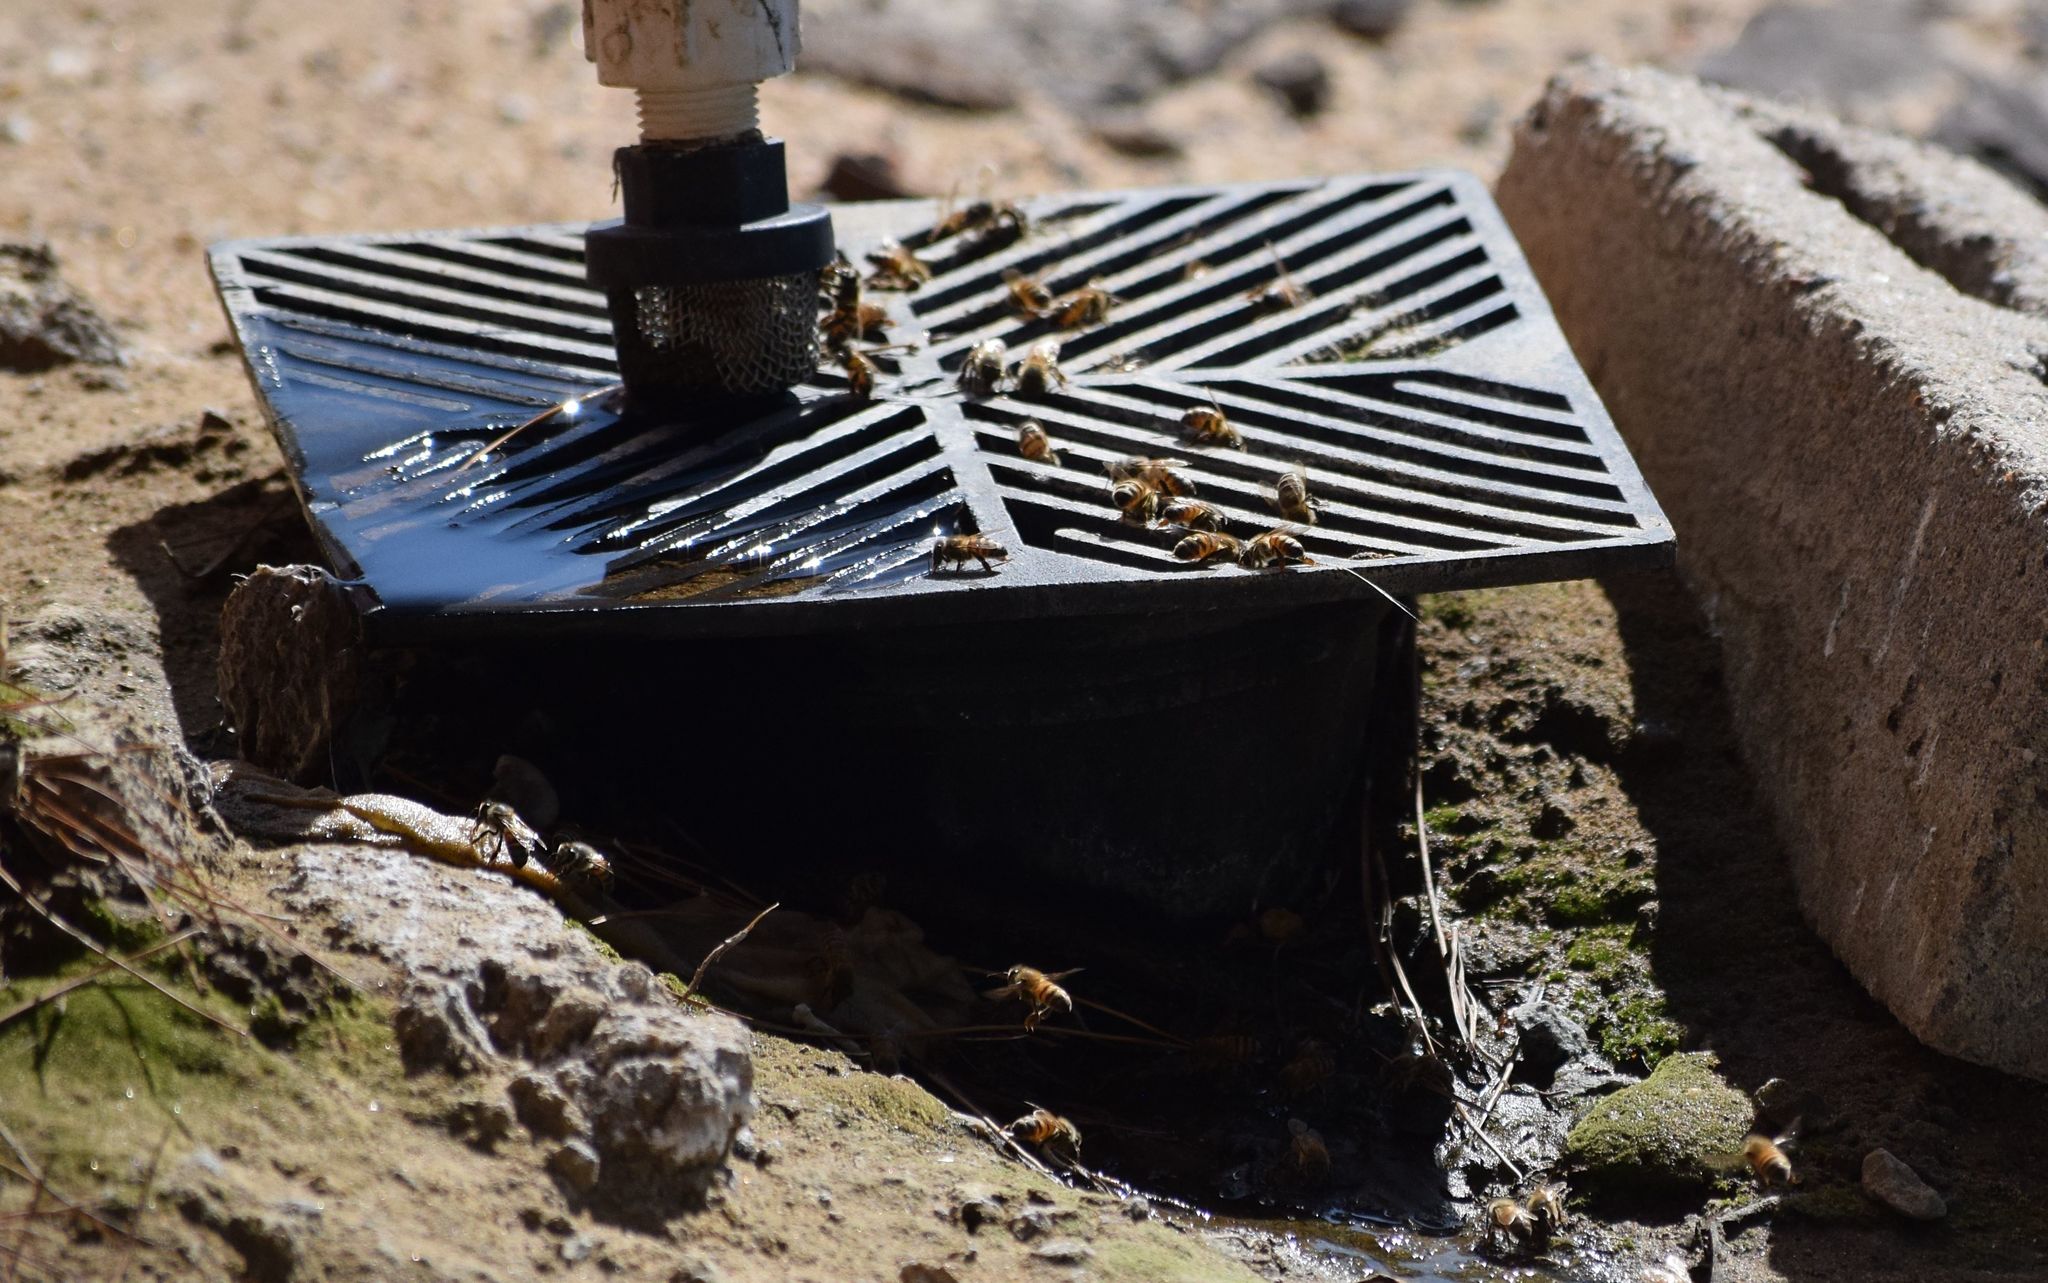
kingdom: Animalia
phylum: Arthropoda
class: Insecta
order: Hymenoptera
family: Apidae
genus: Apis
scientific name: Apis mellifera
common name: Honey bee
